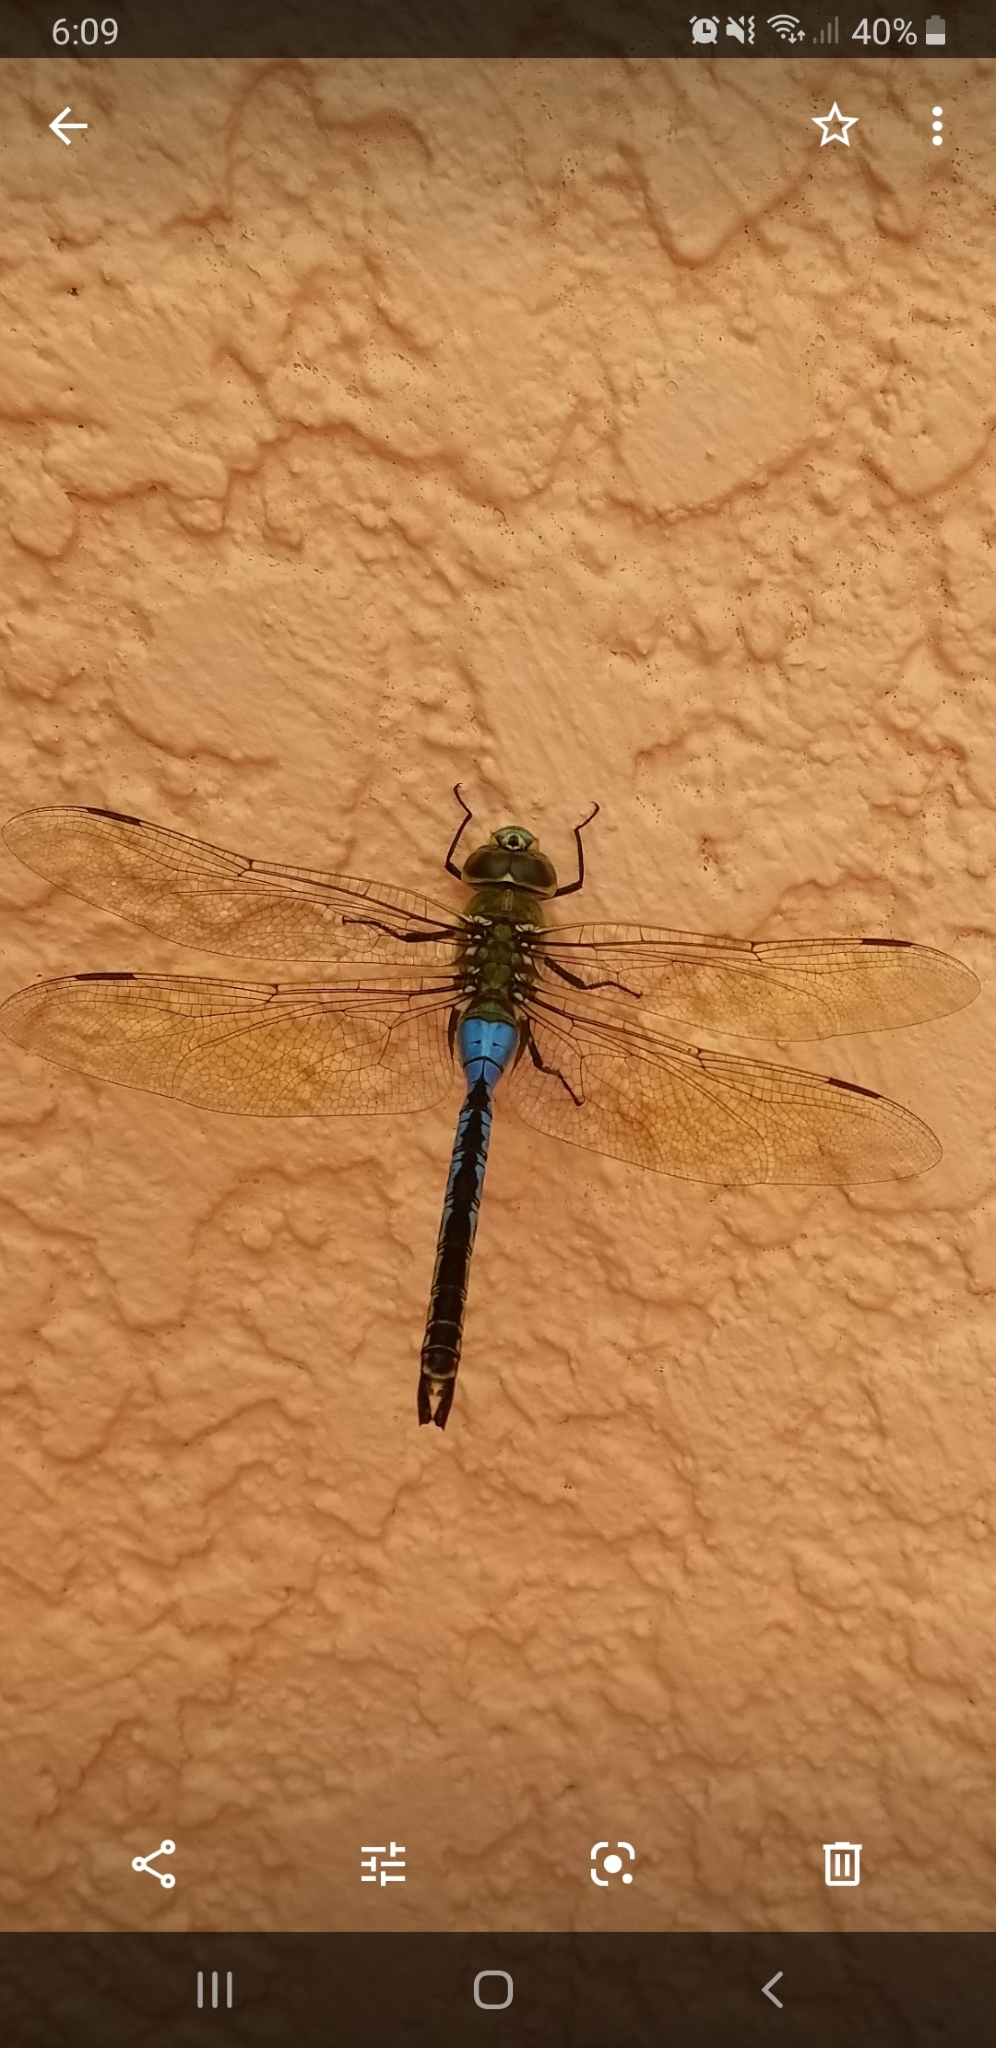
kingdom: Animalia
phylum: Arthropoda
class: Insecta
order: Odonata
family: Aeshnidae
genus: Anax
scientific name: Anax junius
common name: Common green darner
